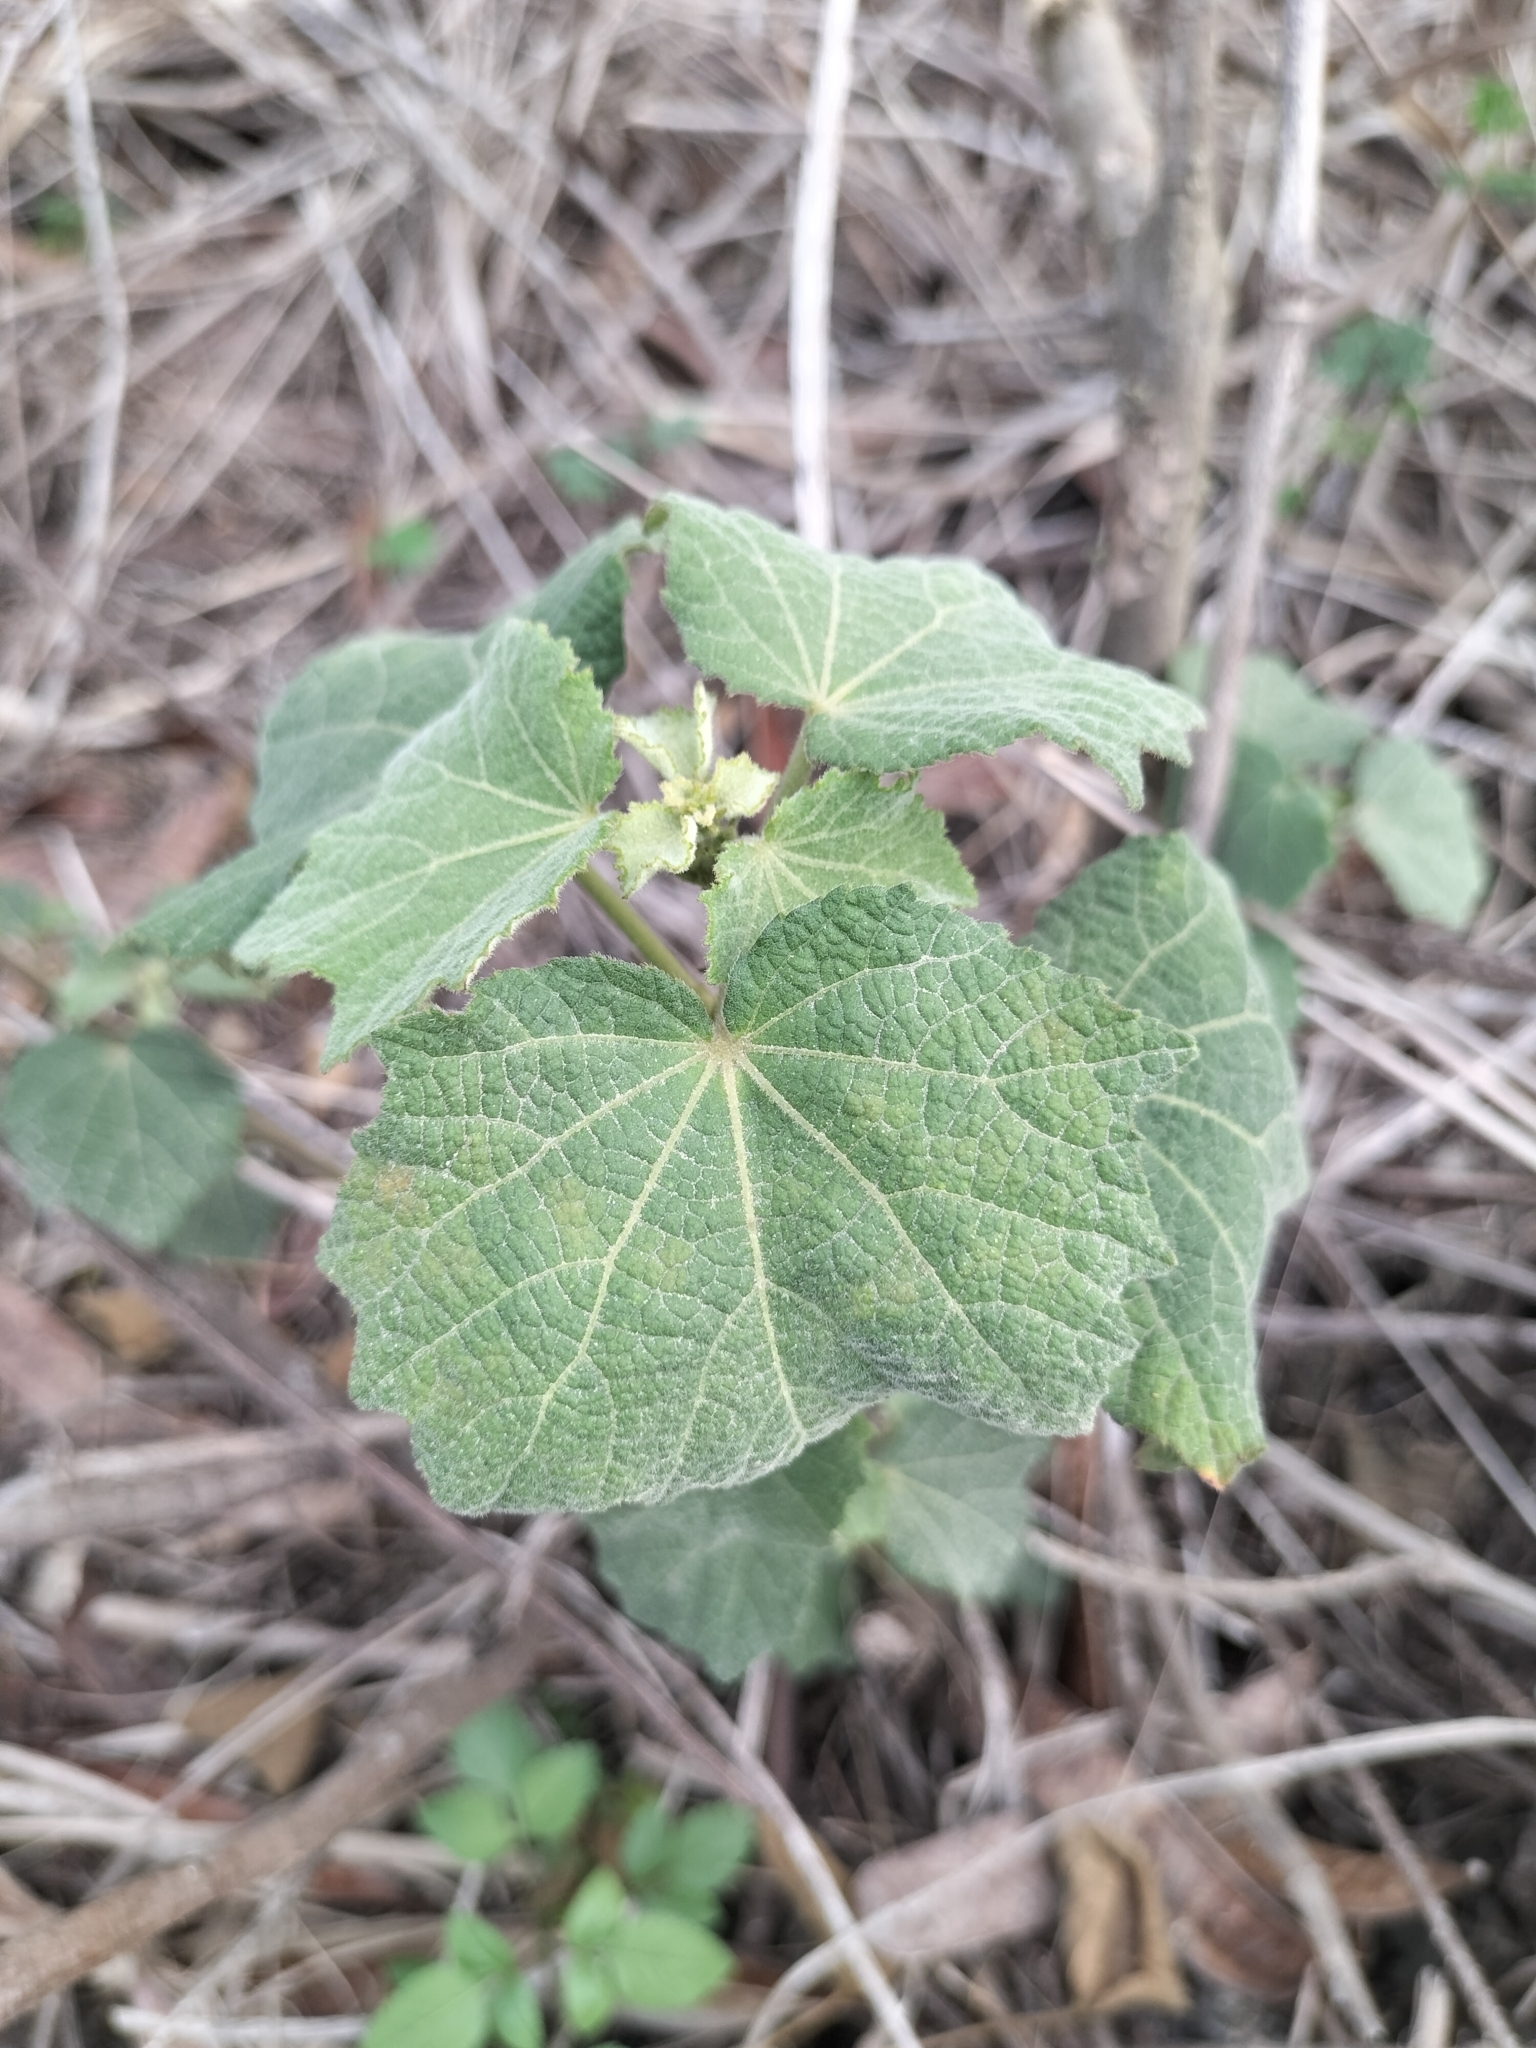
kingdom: Plantae
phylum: Tracheophyta
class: Magnoliopsida
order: Malvales
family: Malvaceae
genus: Urena
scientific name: Urena lobata
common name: Caesarweed
